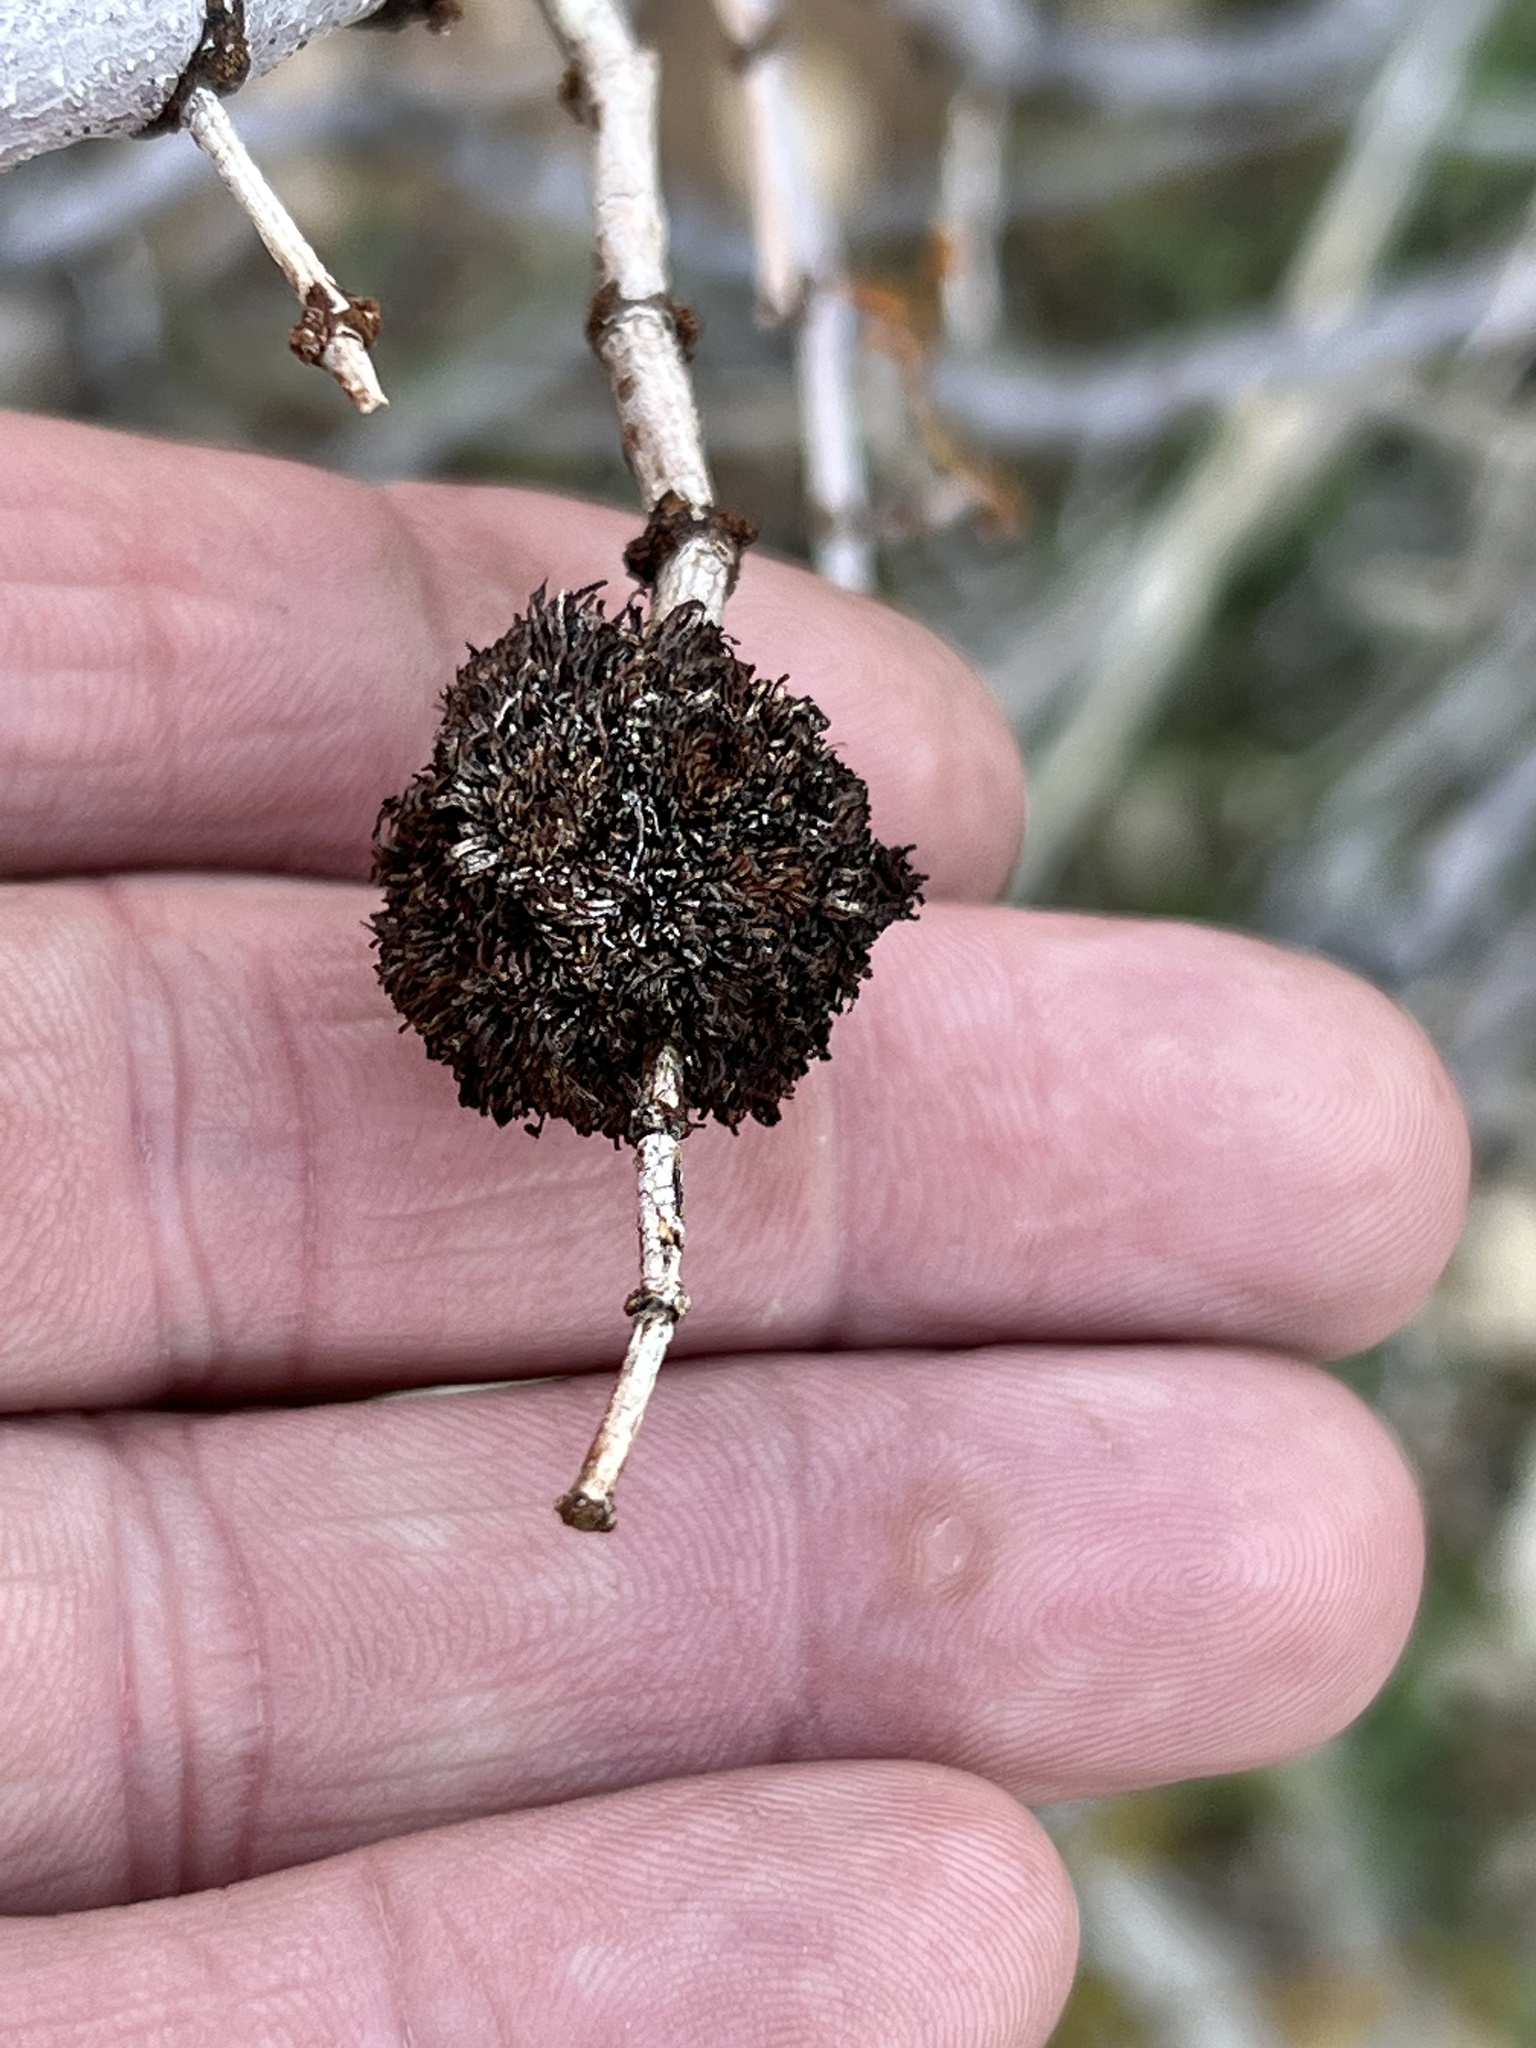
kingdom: Animalia
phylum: Arthropoda
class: Insecta
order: Diptera
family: Cecidomyiidae
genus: Asphondylia
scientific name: Asphondylia auripila
